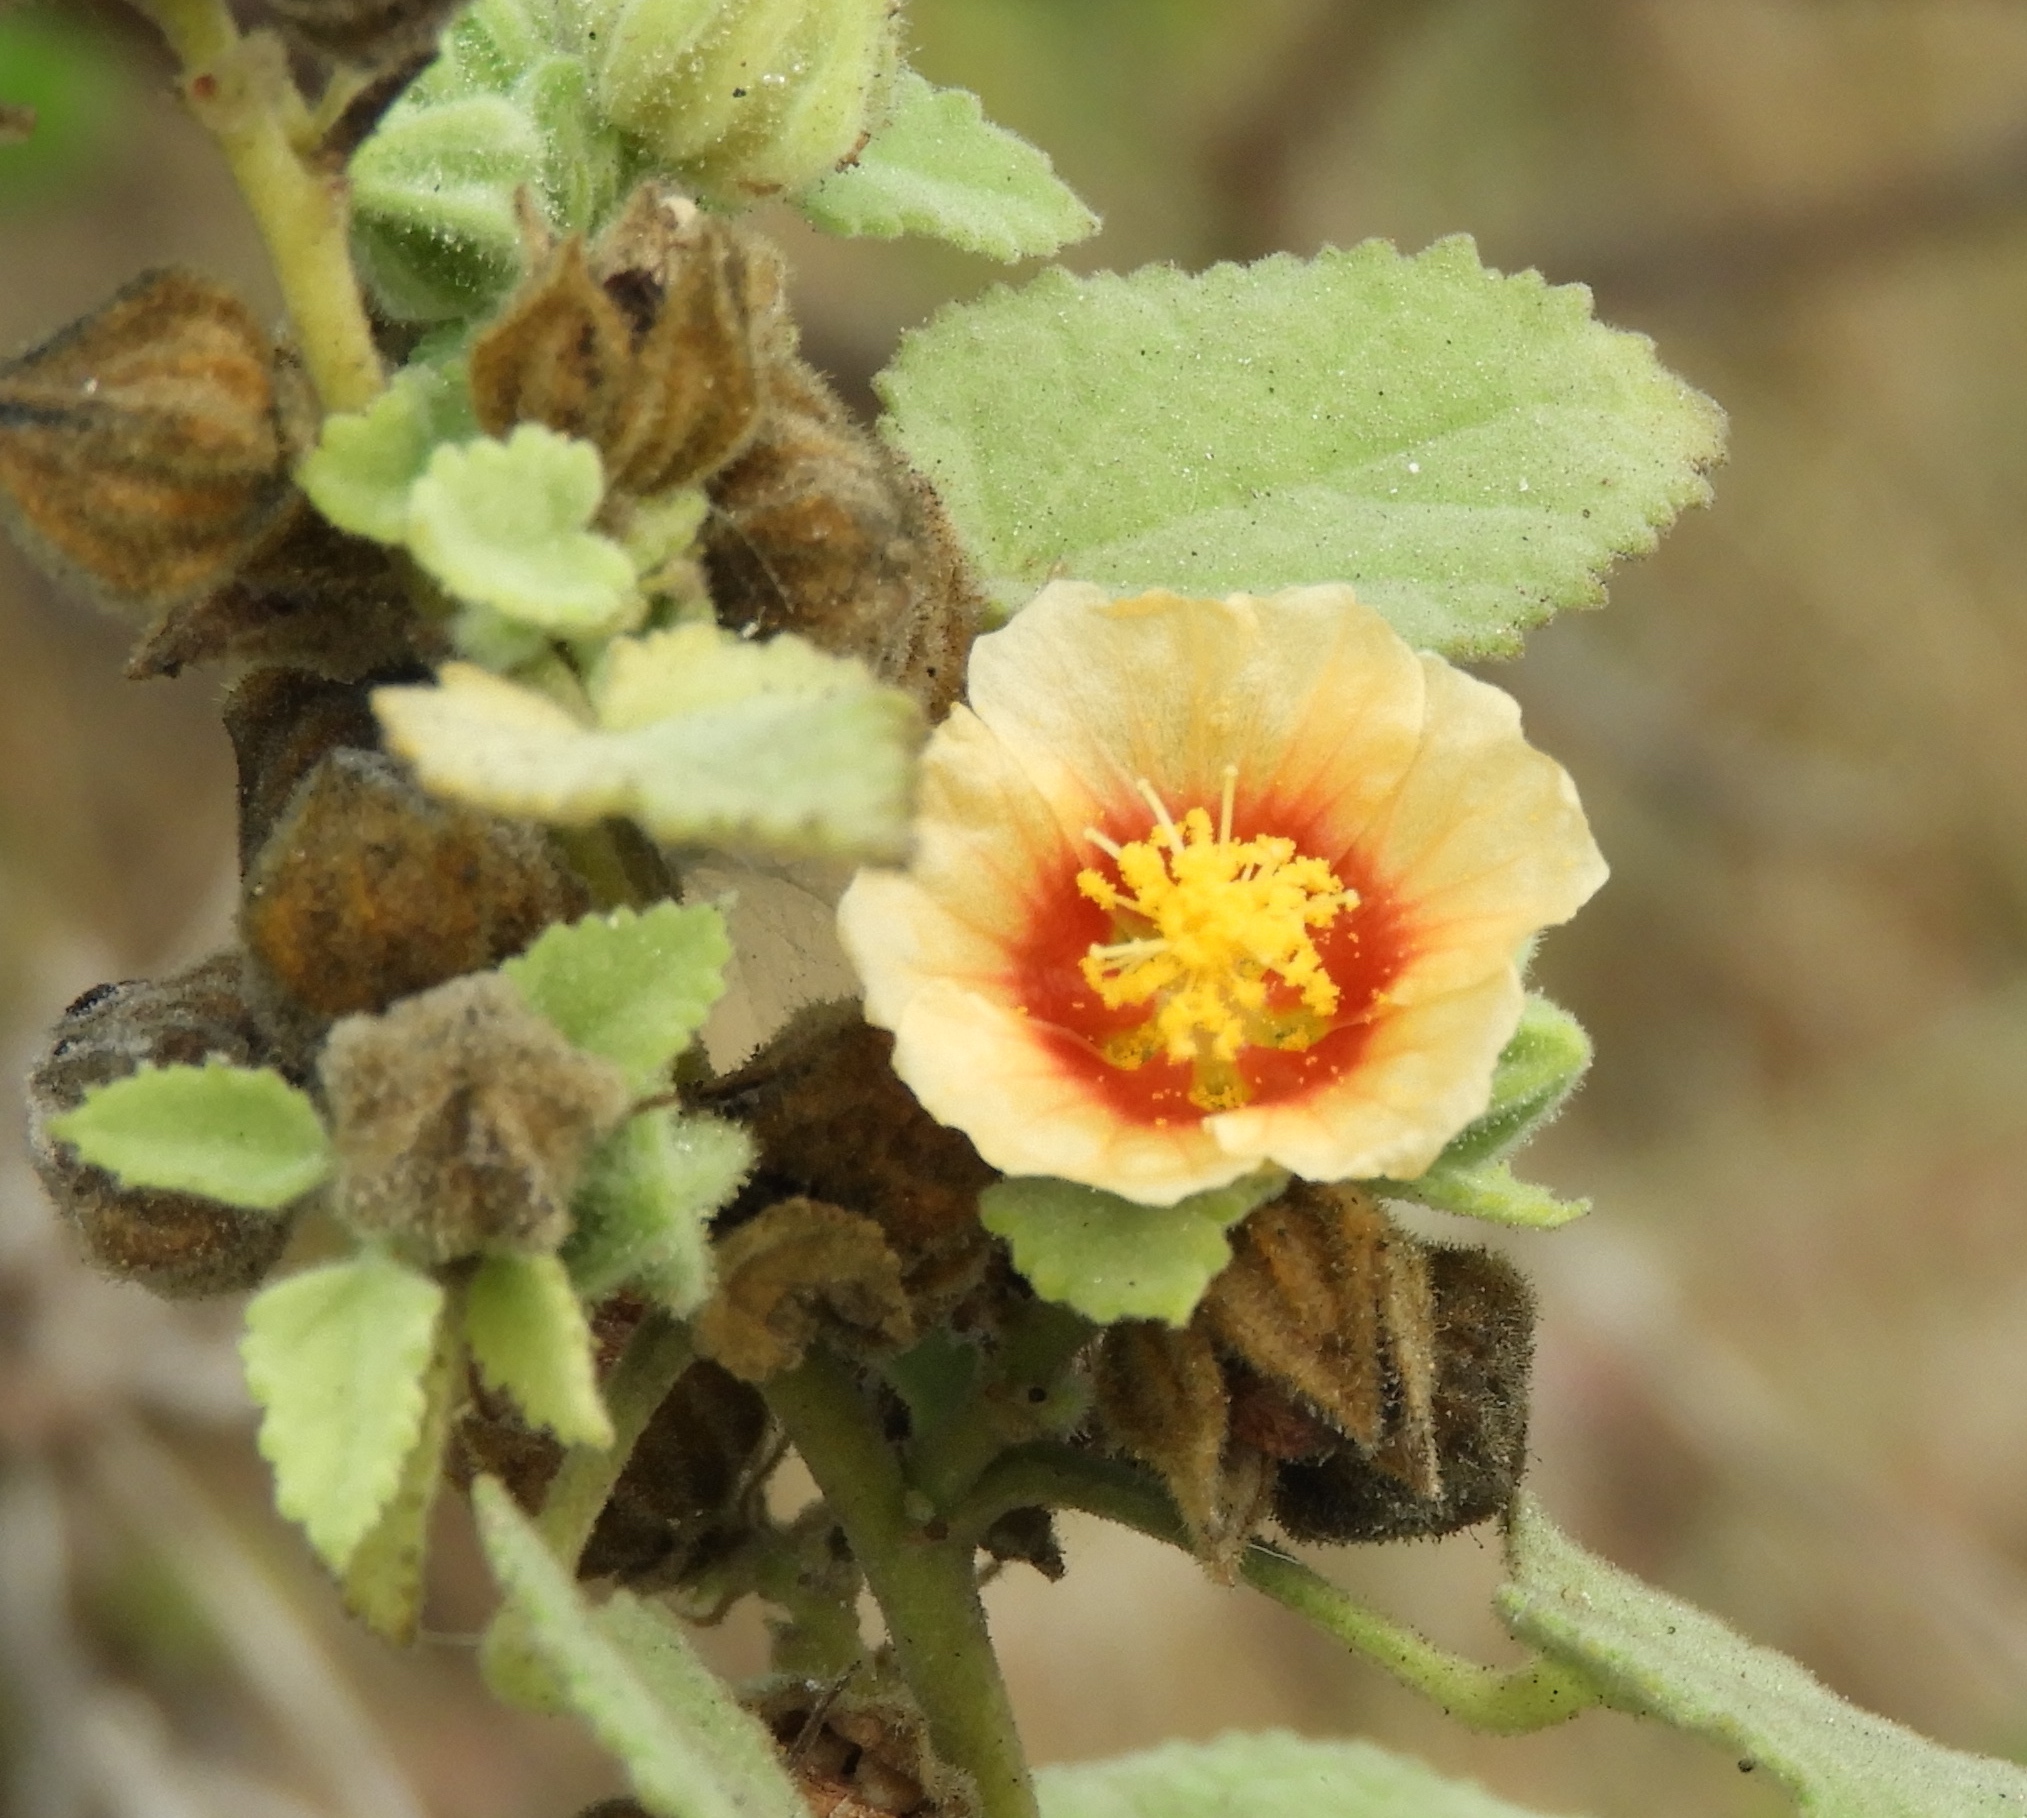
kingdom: Plantae
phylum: Tracheophyta
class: Magnoliopsida
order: Malvales
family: Malvaceae
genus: Sida
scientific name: Sida ciliaris
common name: Bracted fanpetals
